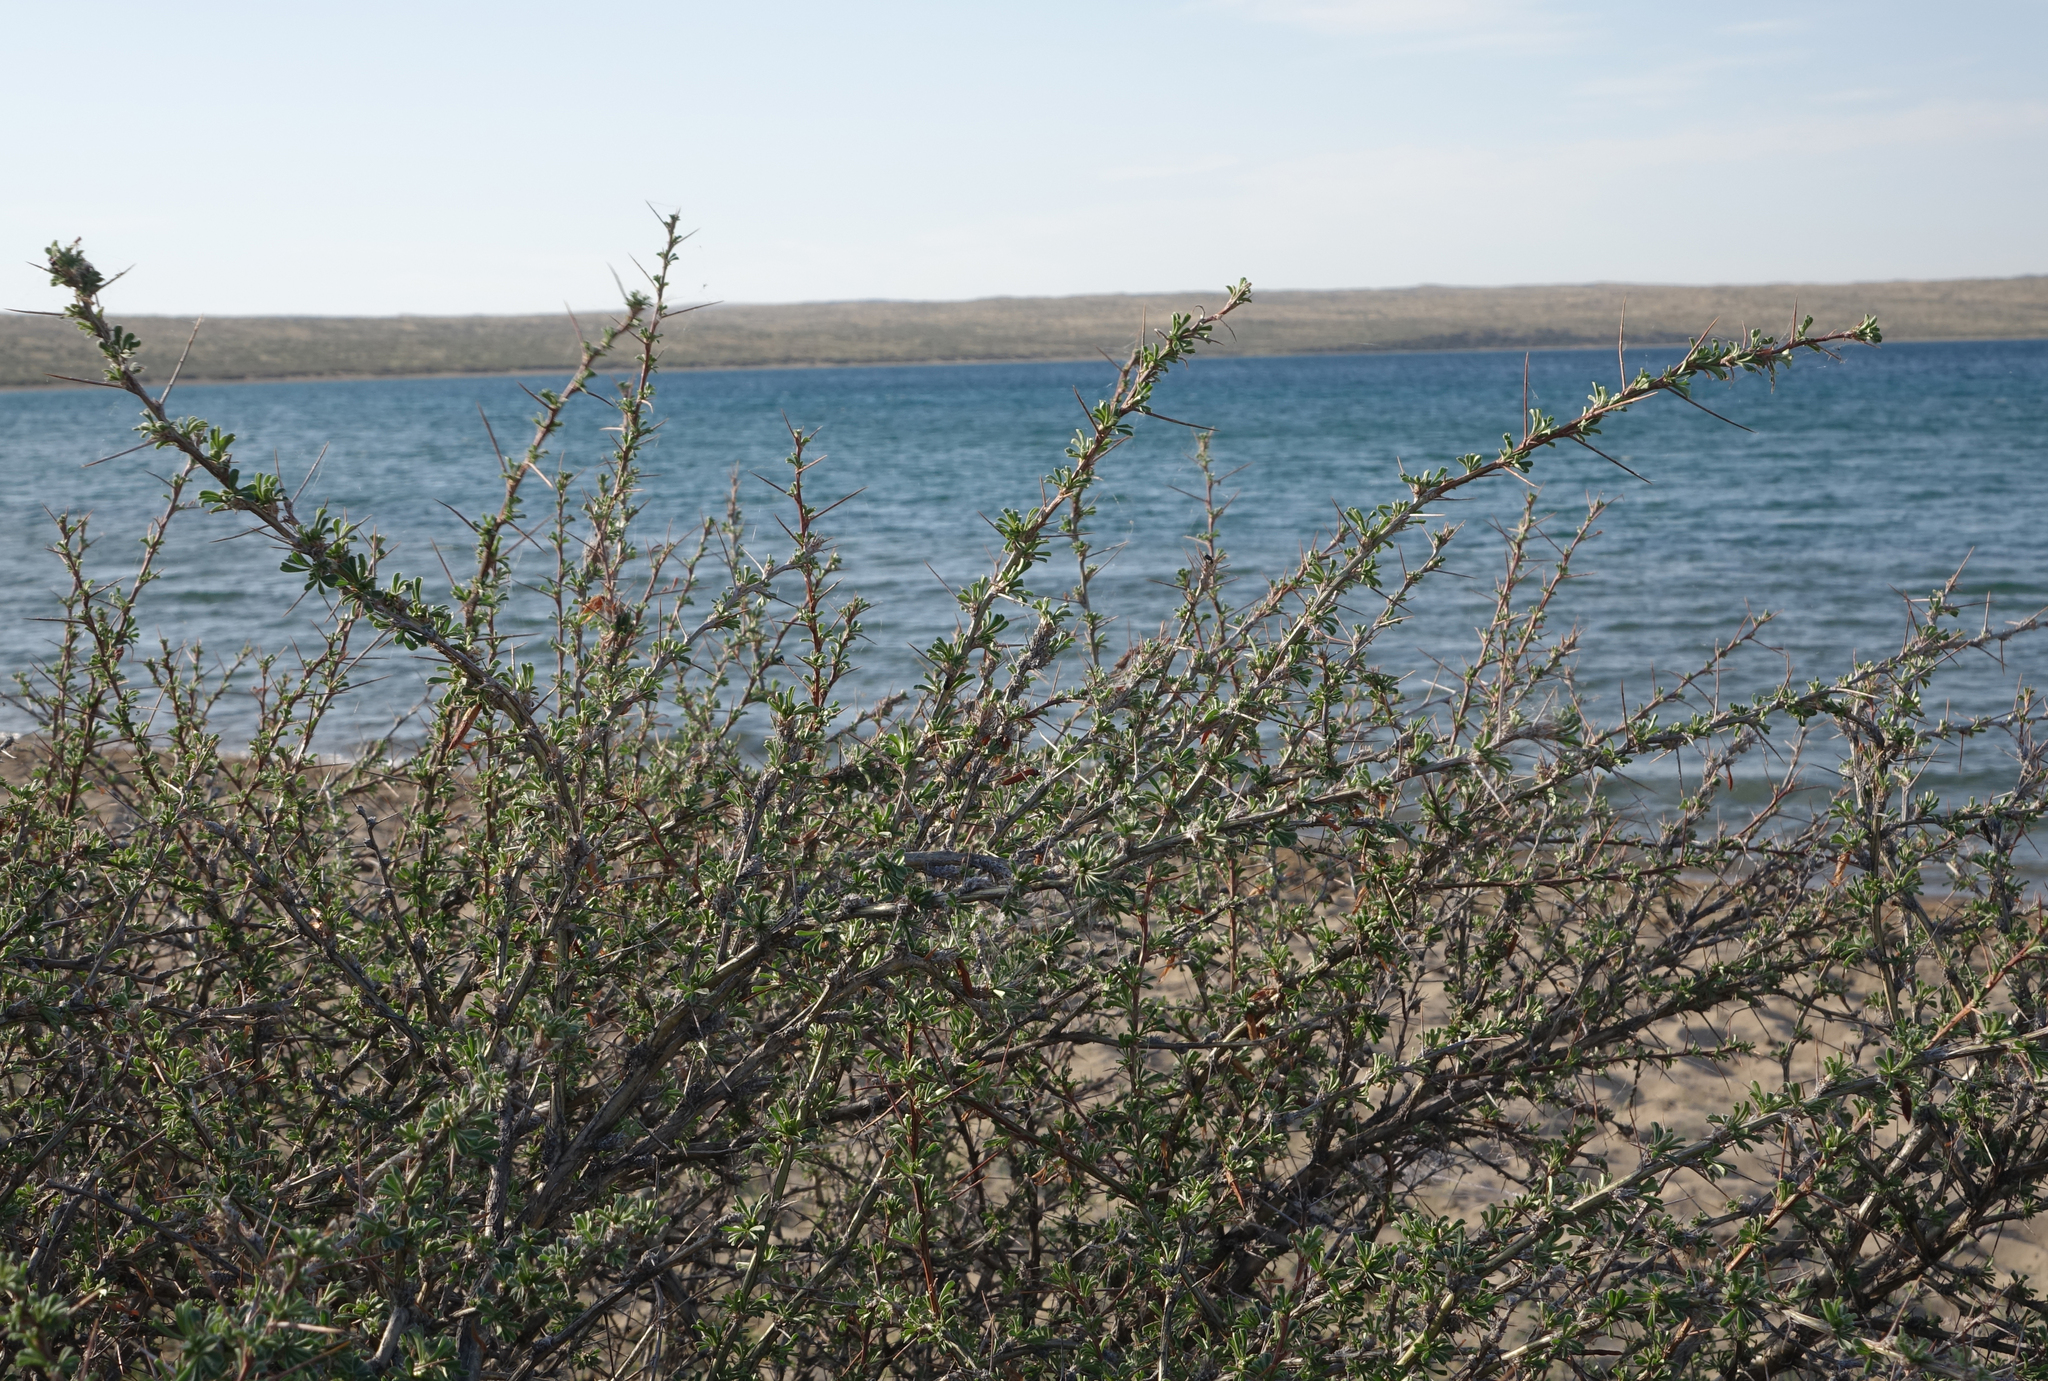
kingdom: Plantae
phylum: Tracheophyta
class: Magnoliopsida
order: Fabales
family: Fabaceae
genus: Caragana
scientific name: Caragana spinosa
